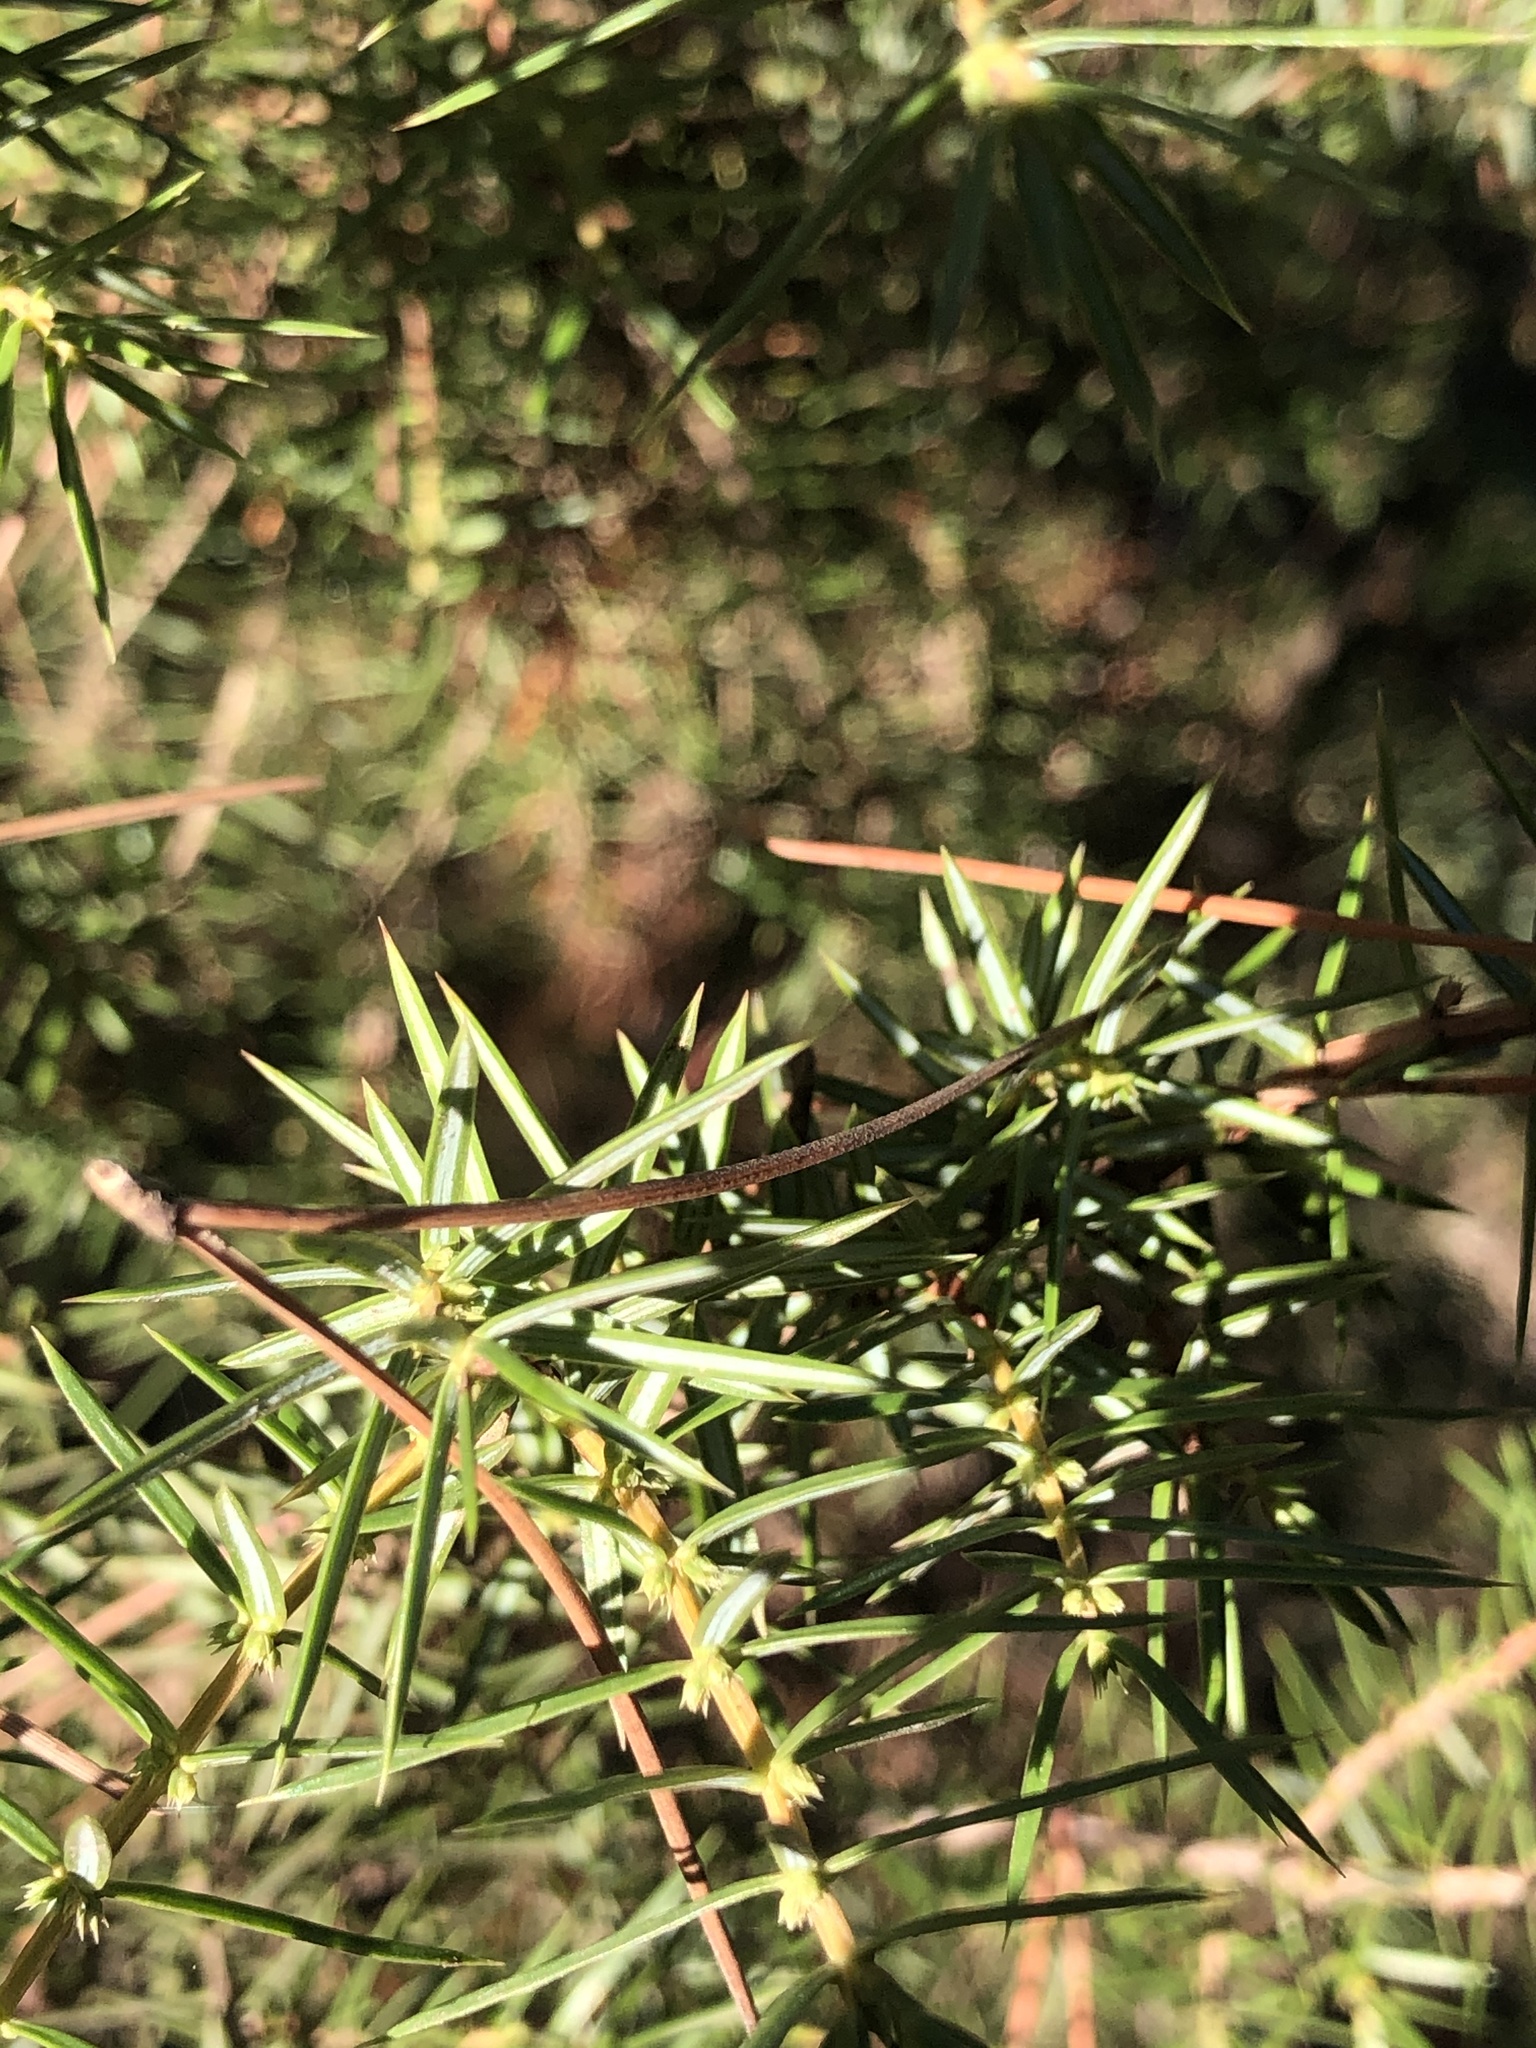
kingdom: Plantae
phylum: Tracheophyta
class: Pinopsida
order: Pinales
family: Cupressaceae
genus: Juniperus
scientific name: Juniperus communis
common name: Common juniper
